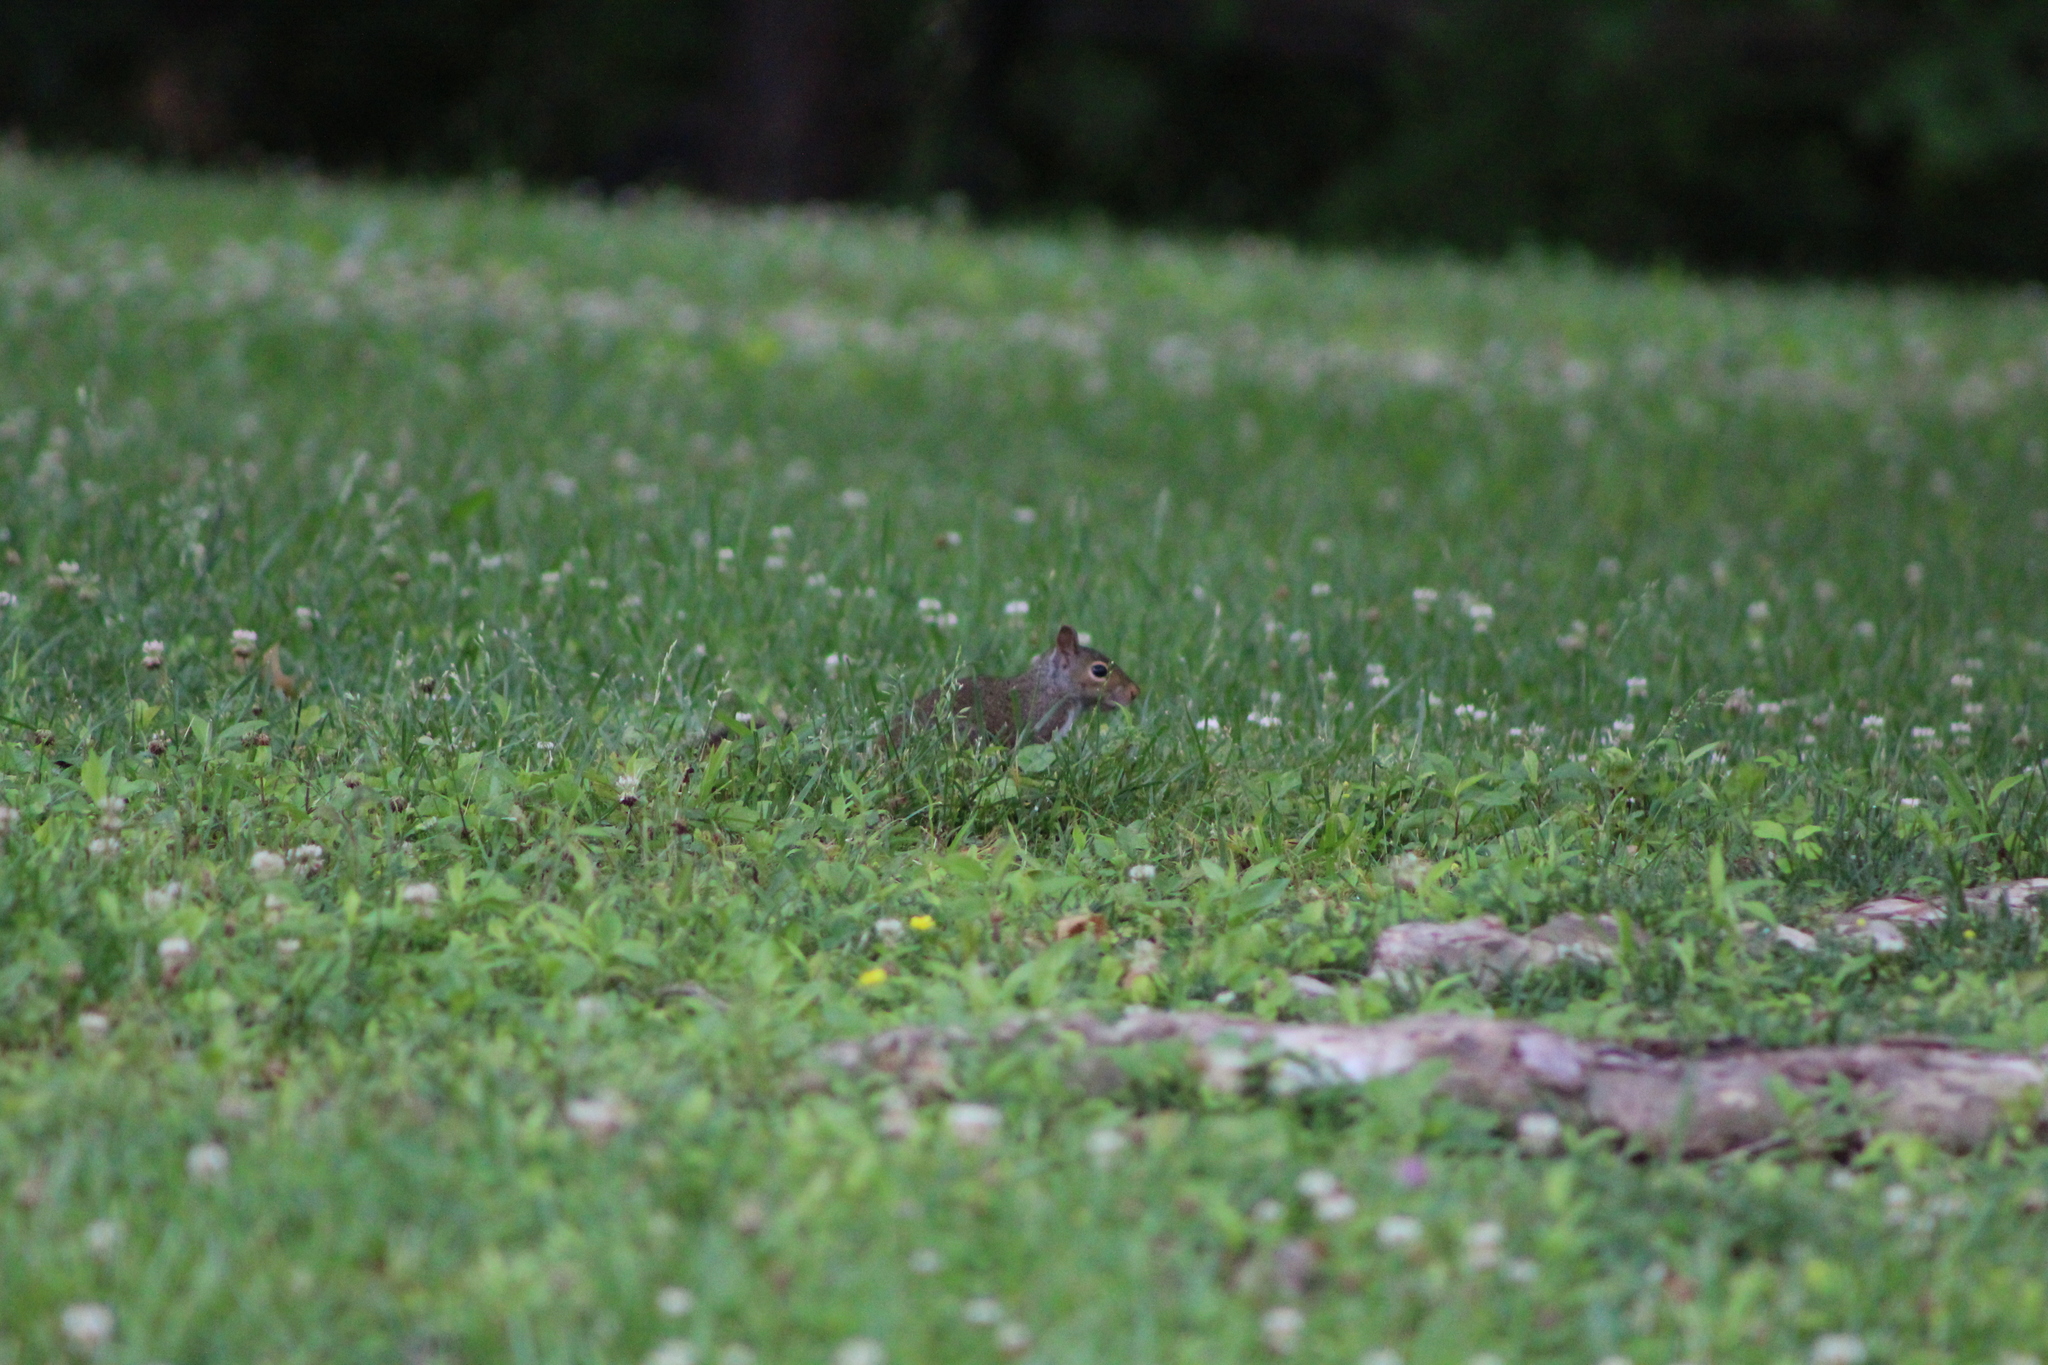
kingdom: Animalia
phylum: Chordata
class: Mammalia
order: Rodentia
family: Sciuridae
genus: Sciurus
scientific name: Sciurus carolinensis
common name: Eastern gray squirrel
